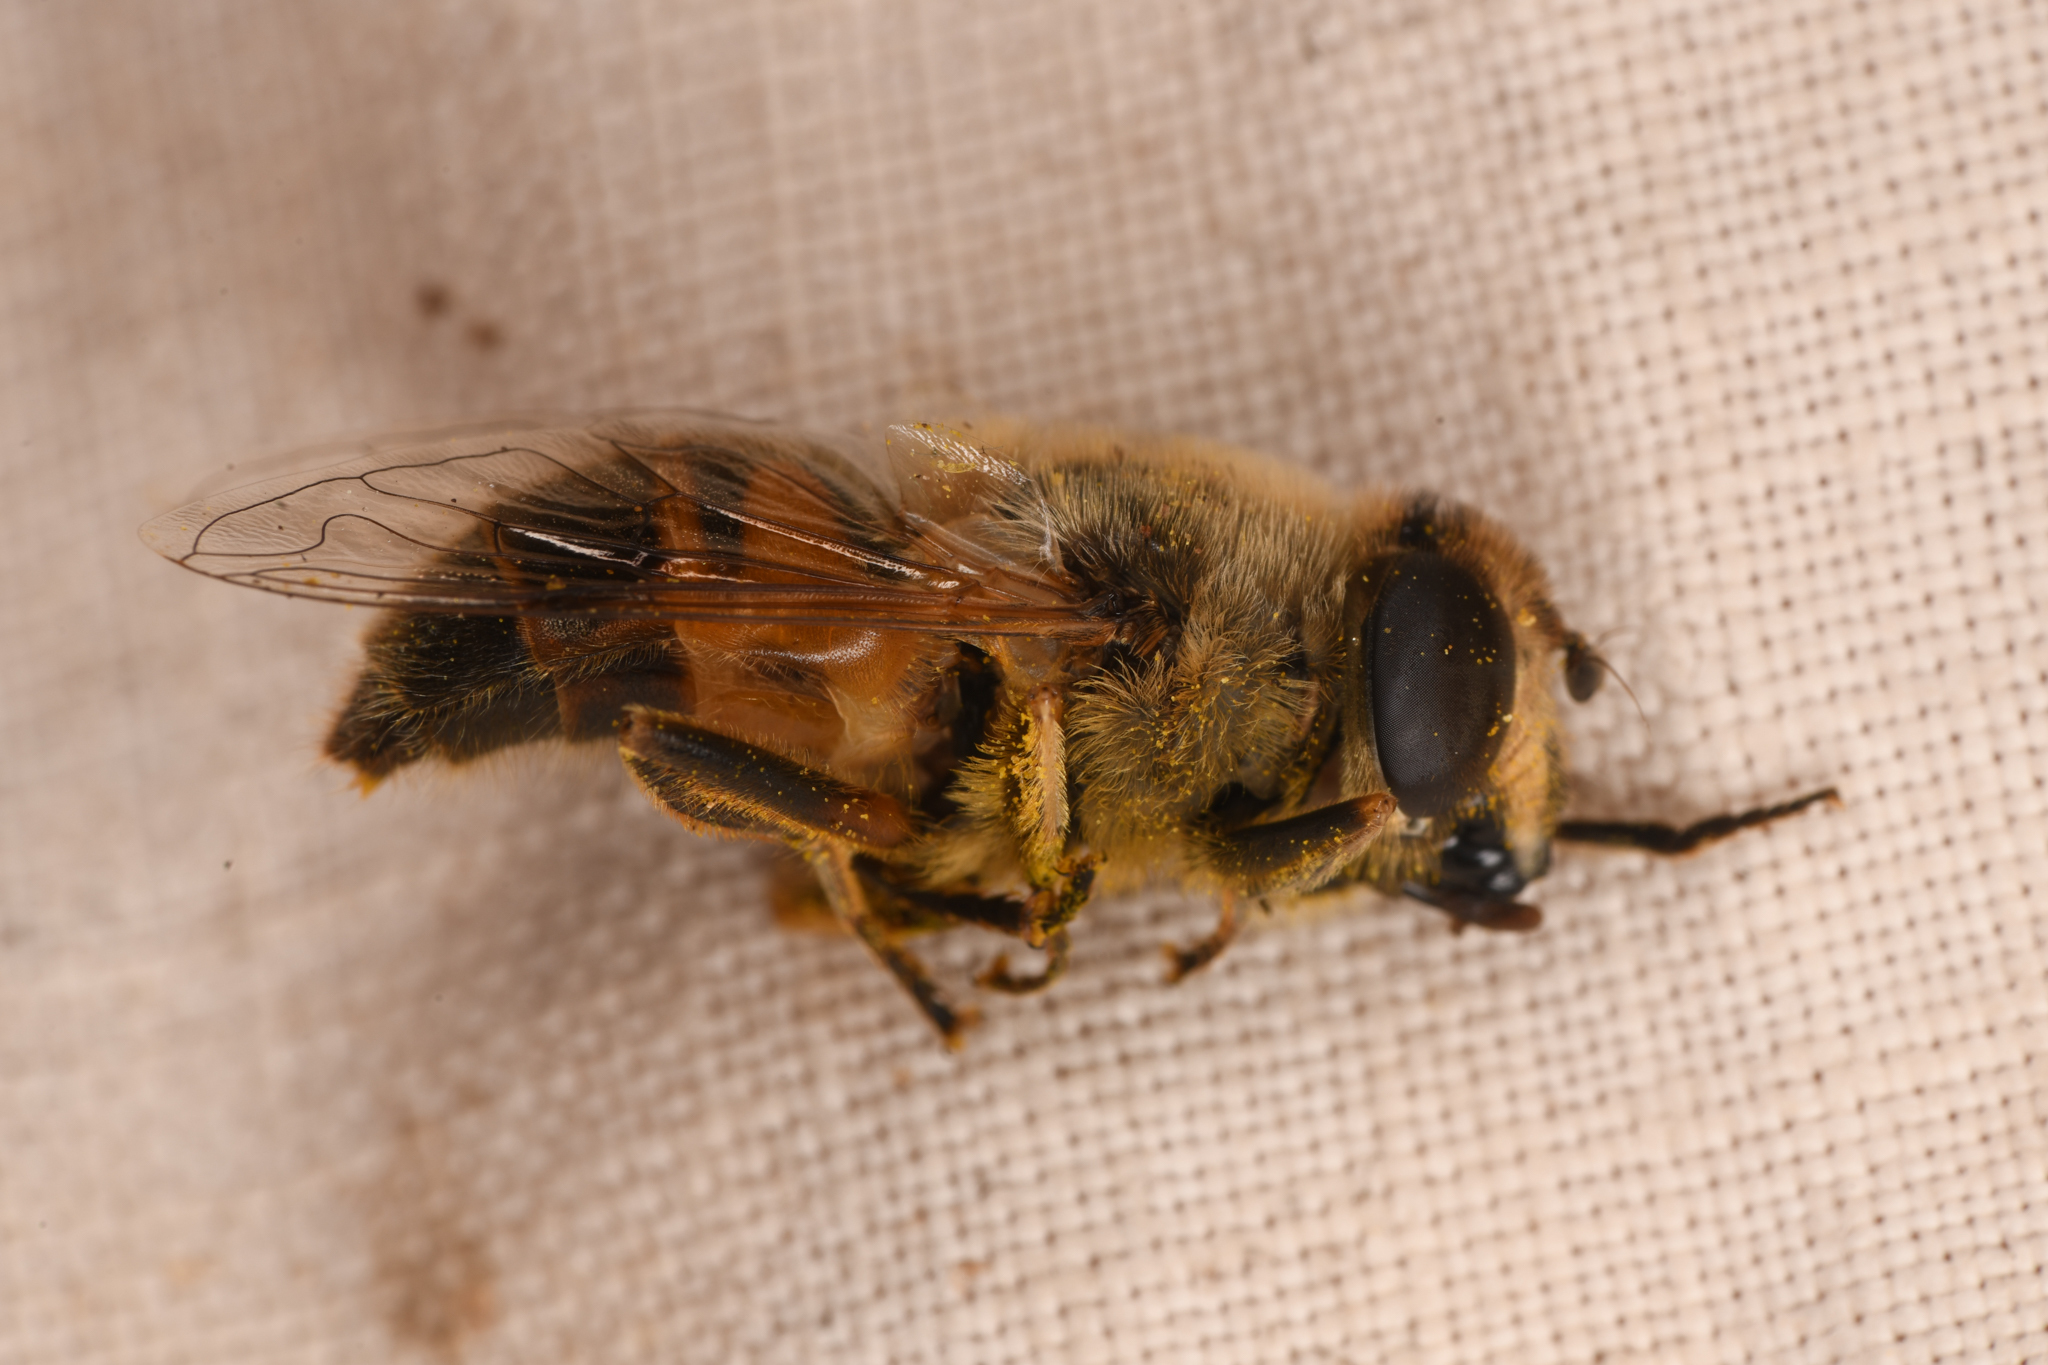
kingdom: Animalia
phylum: Arthropoda
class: Insecta
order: Diptera
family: Syrphidae
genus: Eristalis
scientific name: Eristalis tenax
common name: Drone fly
